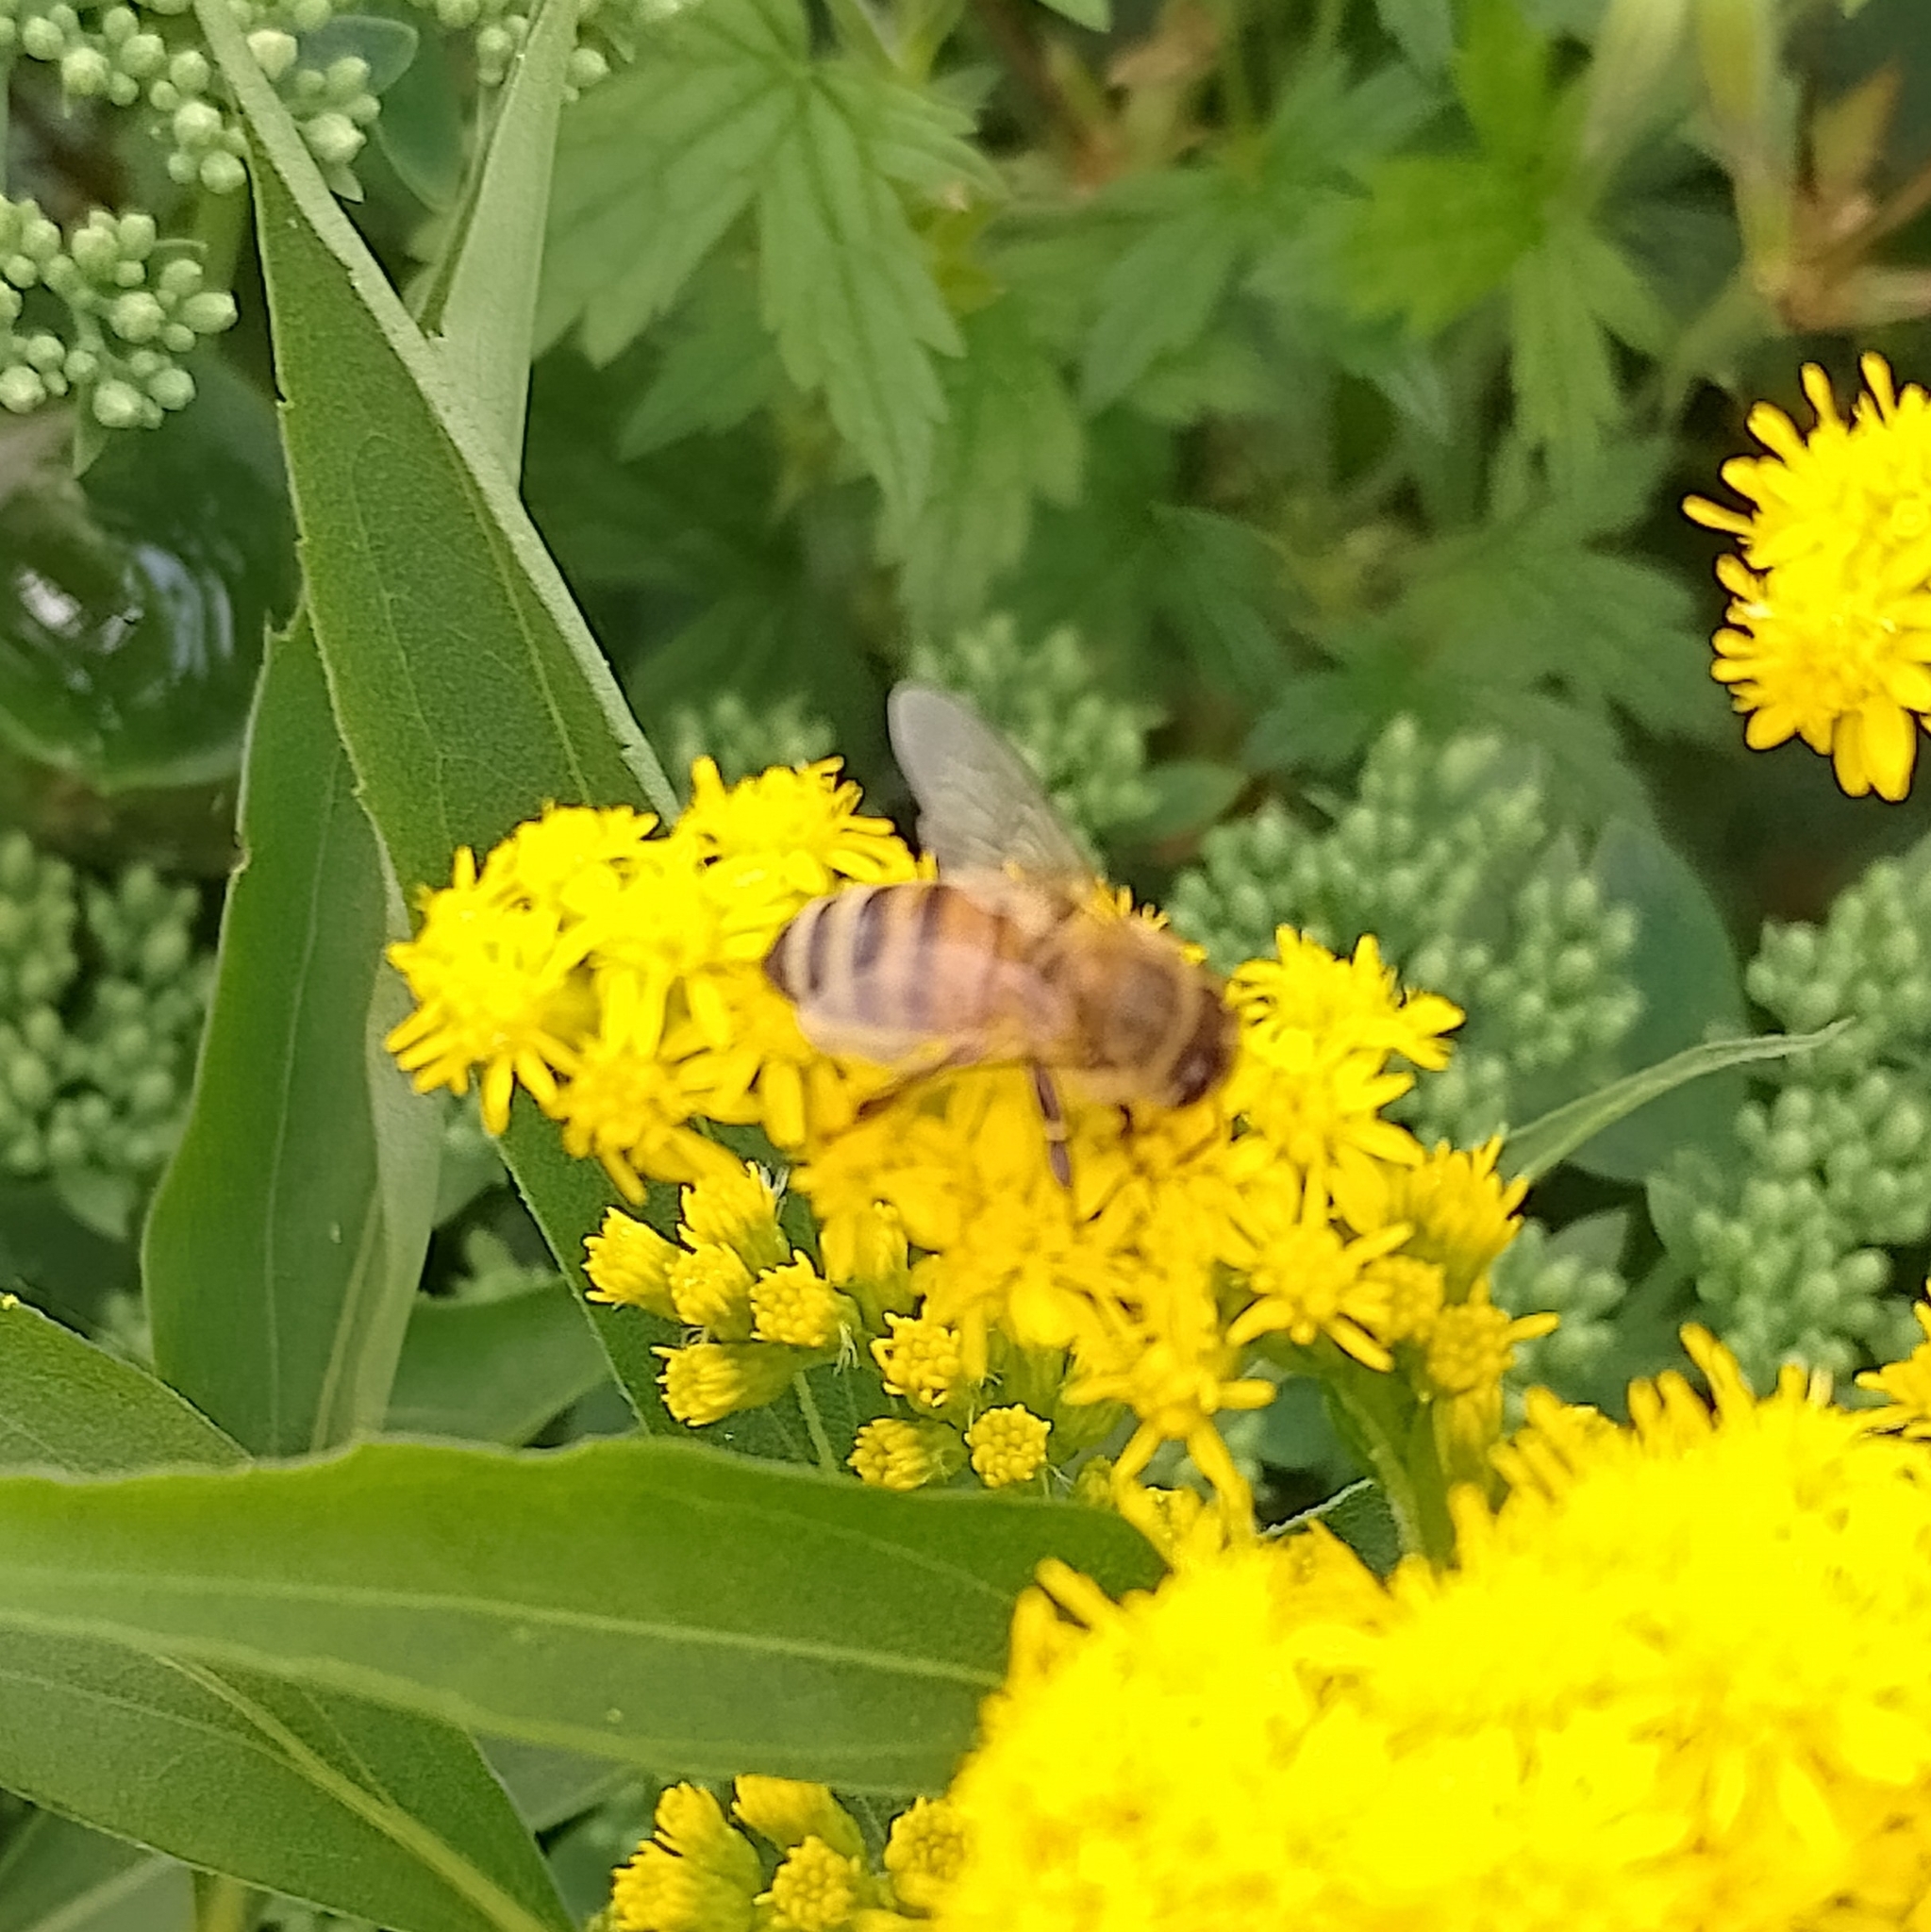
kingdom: Animalia
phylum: Arthropoda
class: Insecta
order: Hymenoptera
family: Apidae
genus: Apis
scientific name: Apis mellifera
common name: Honey bee
